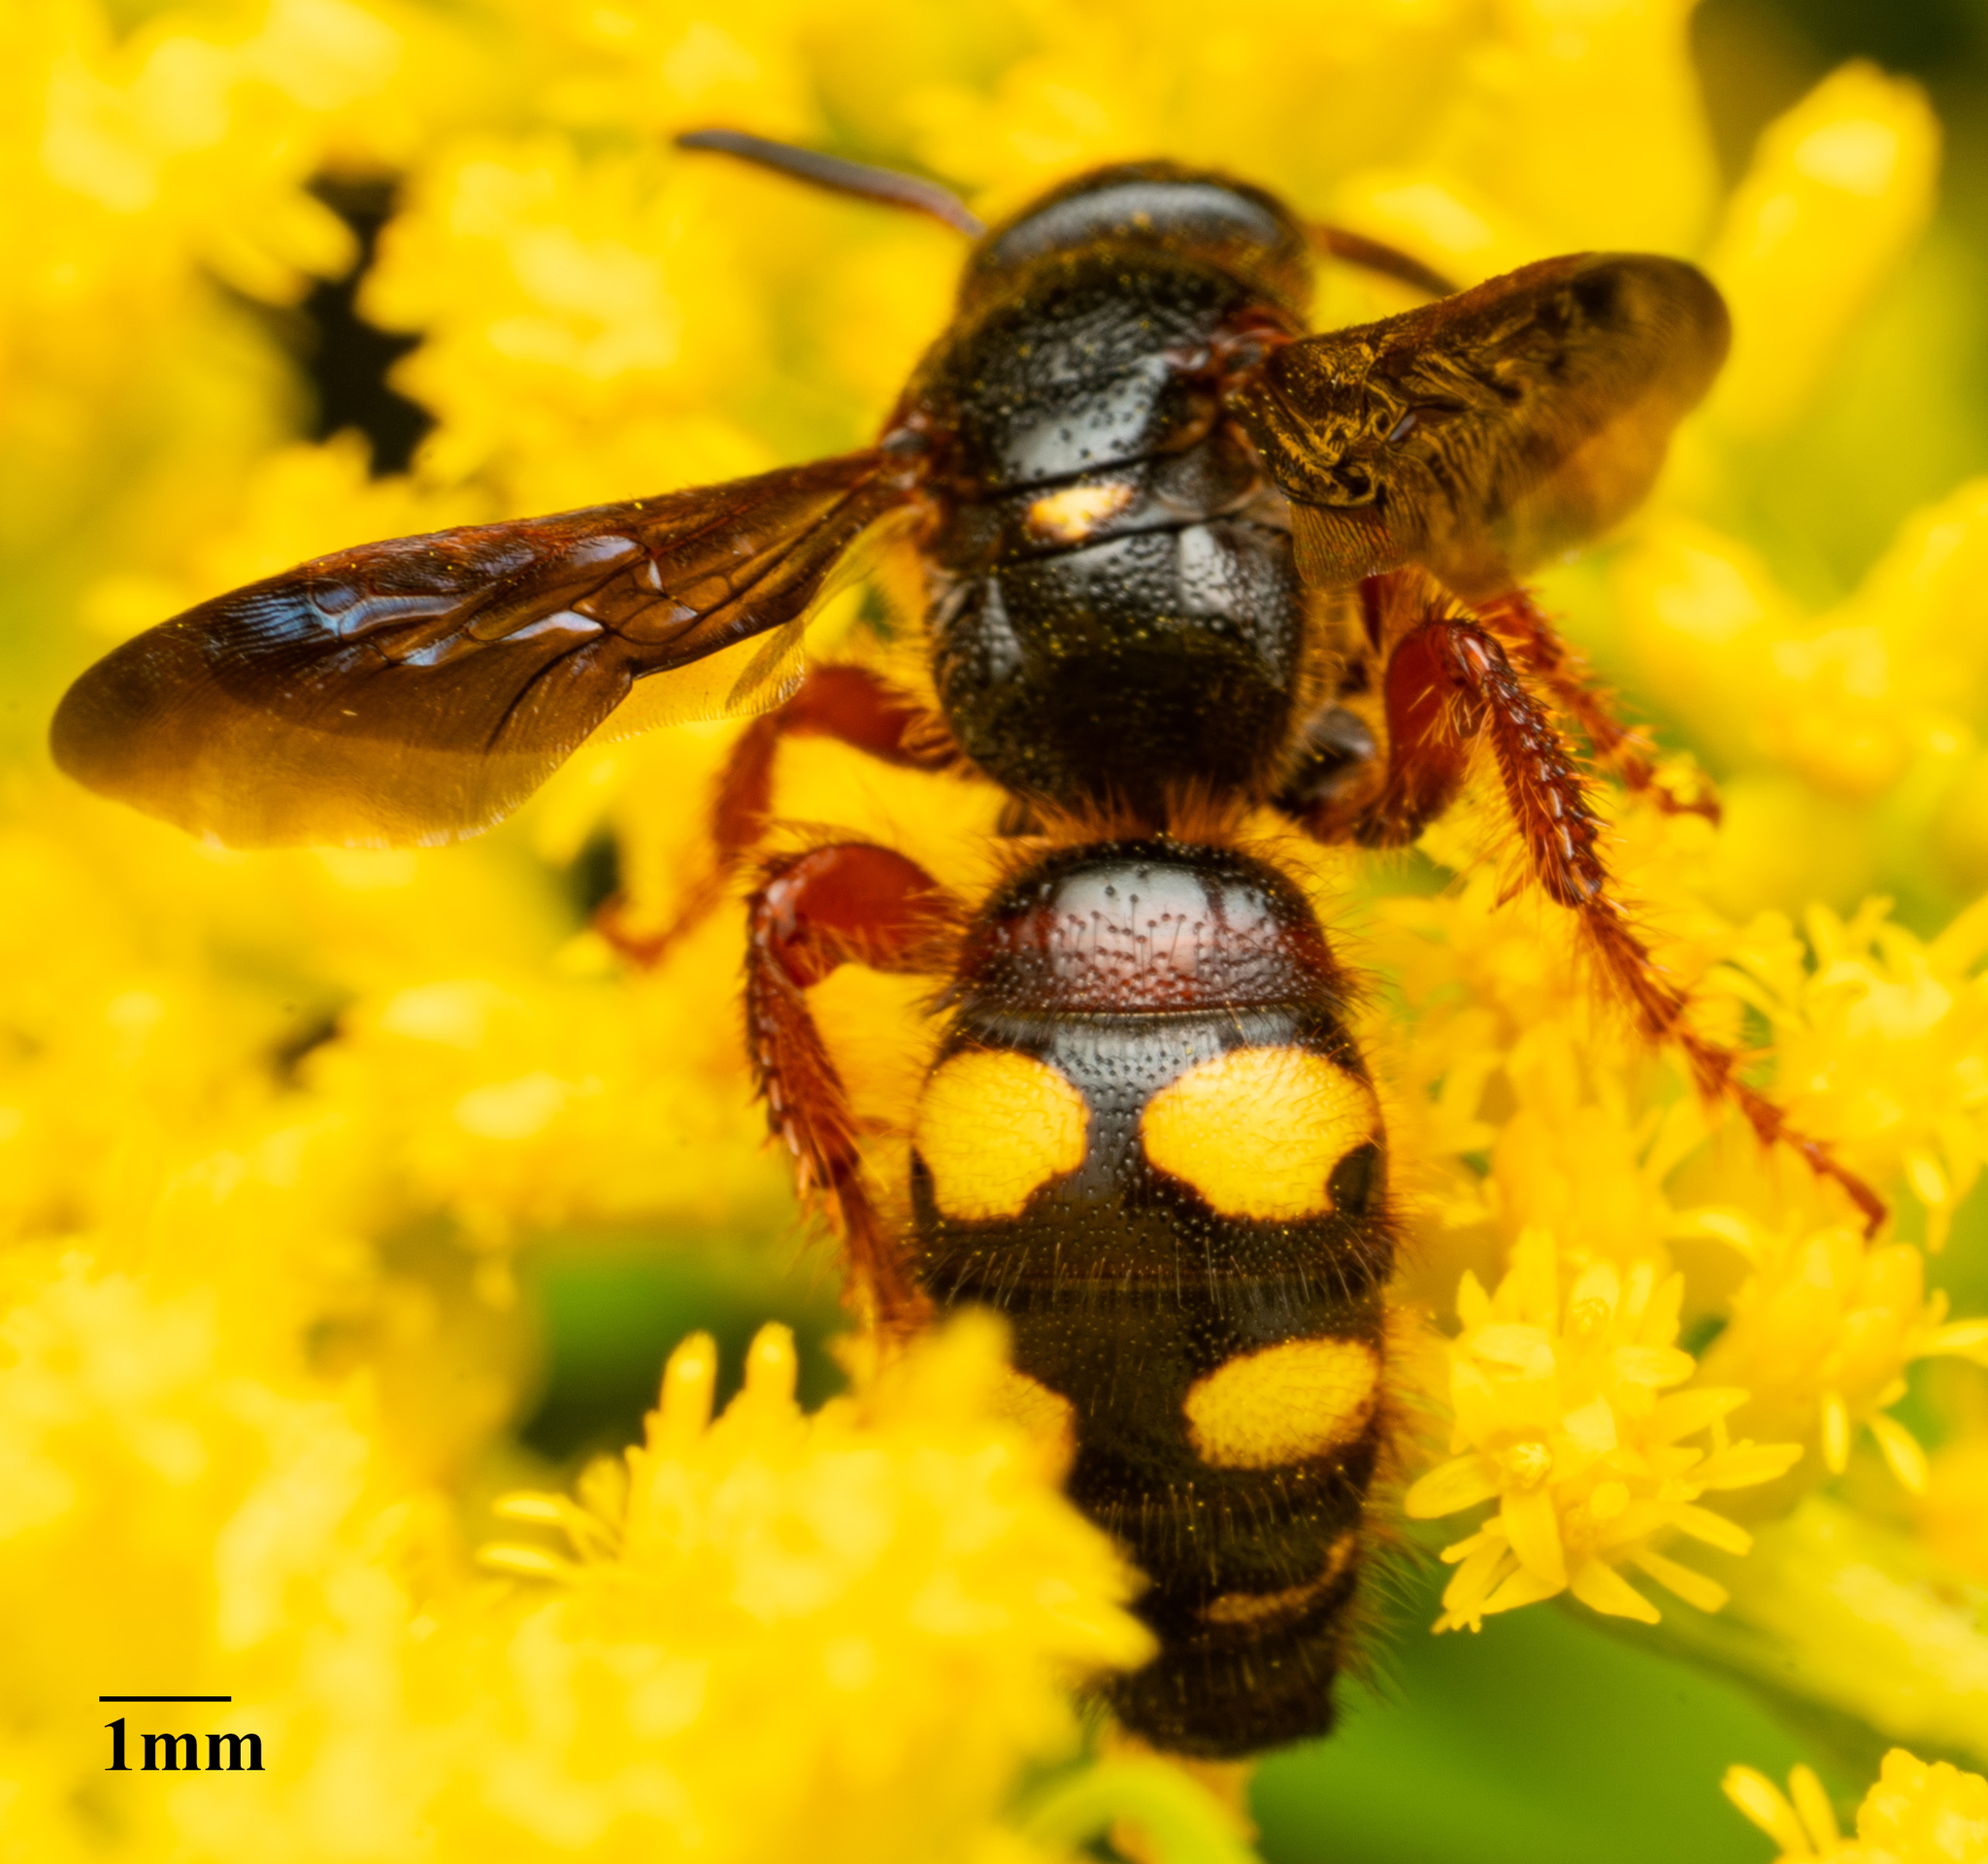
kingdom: Animalia
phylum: Arthropoda
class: Insecta
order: Hymenoptera
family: Scoliidae
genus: Scolia
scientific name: Scolia nobilitata
